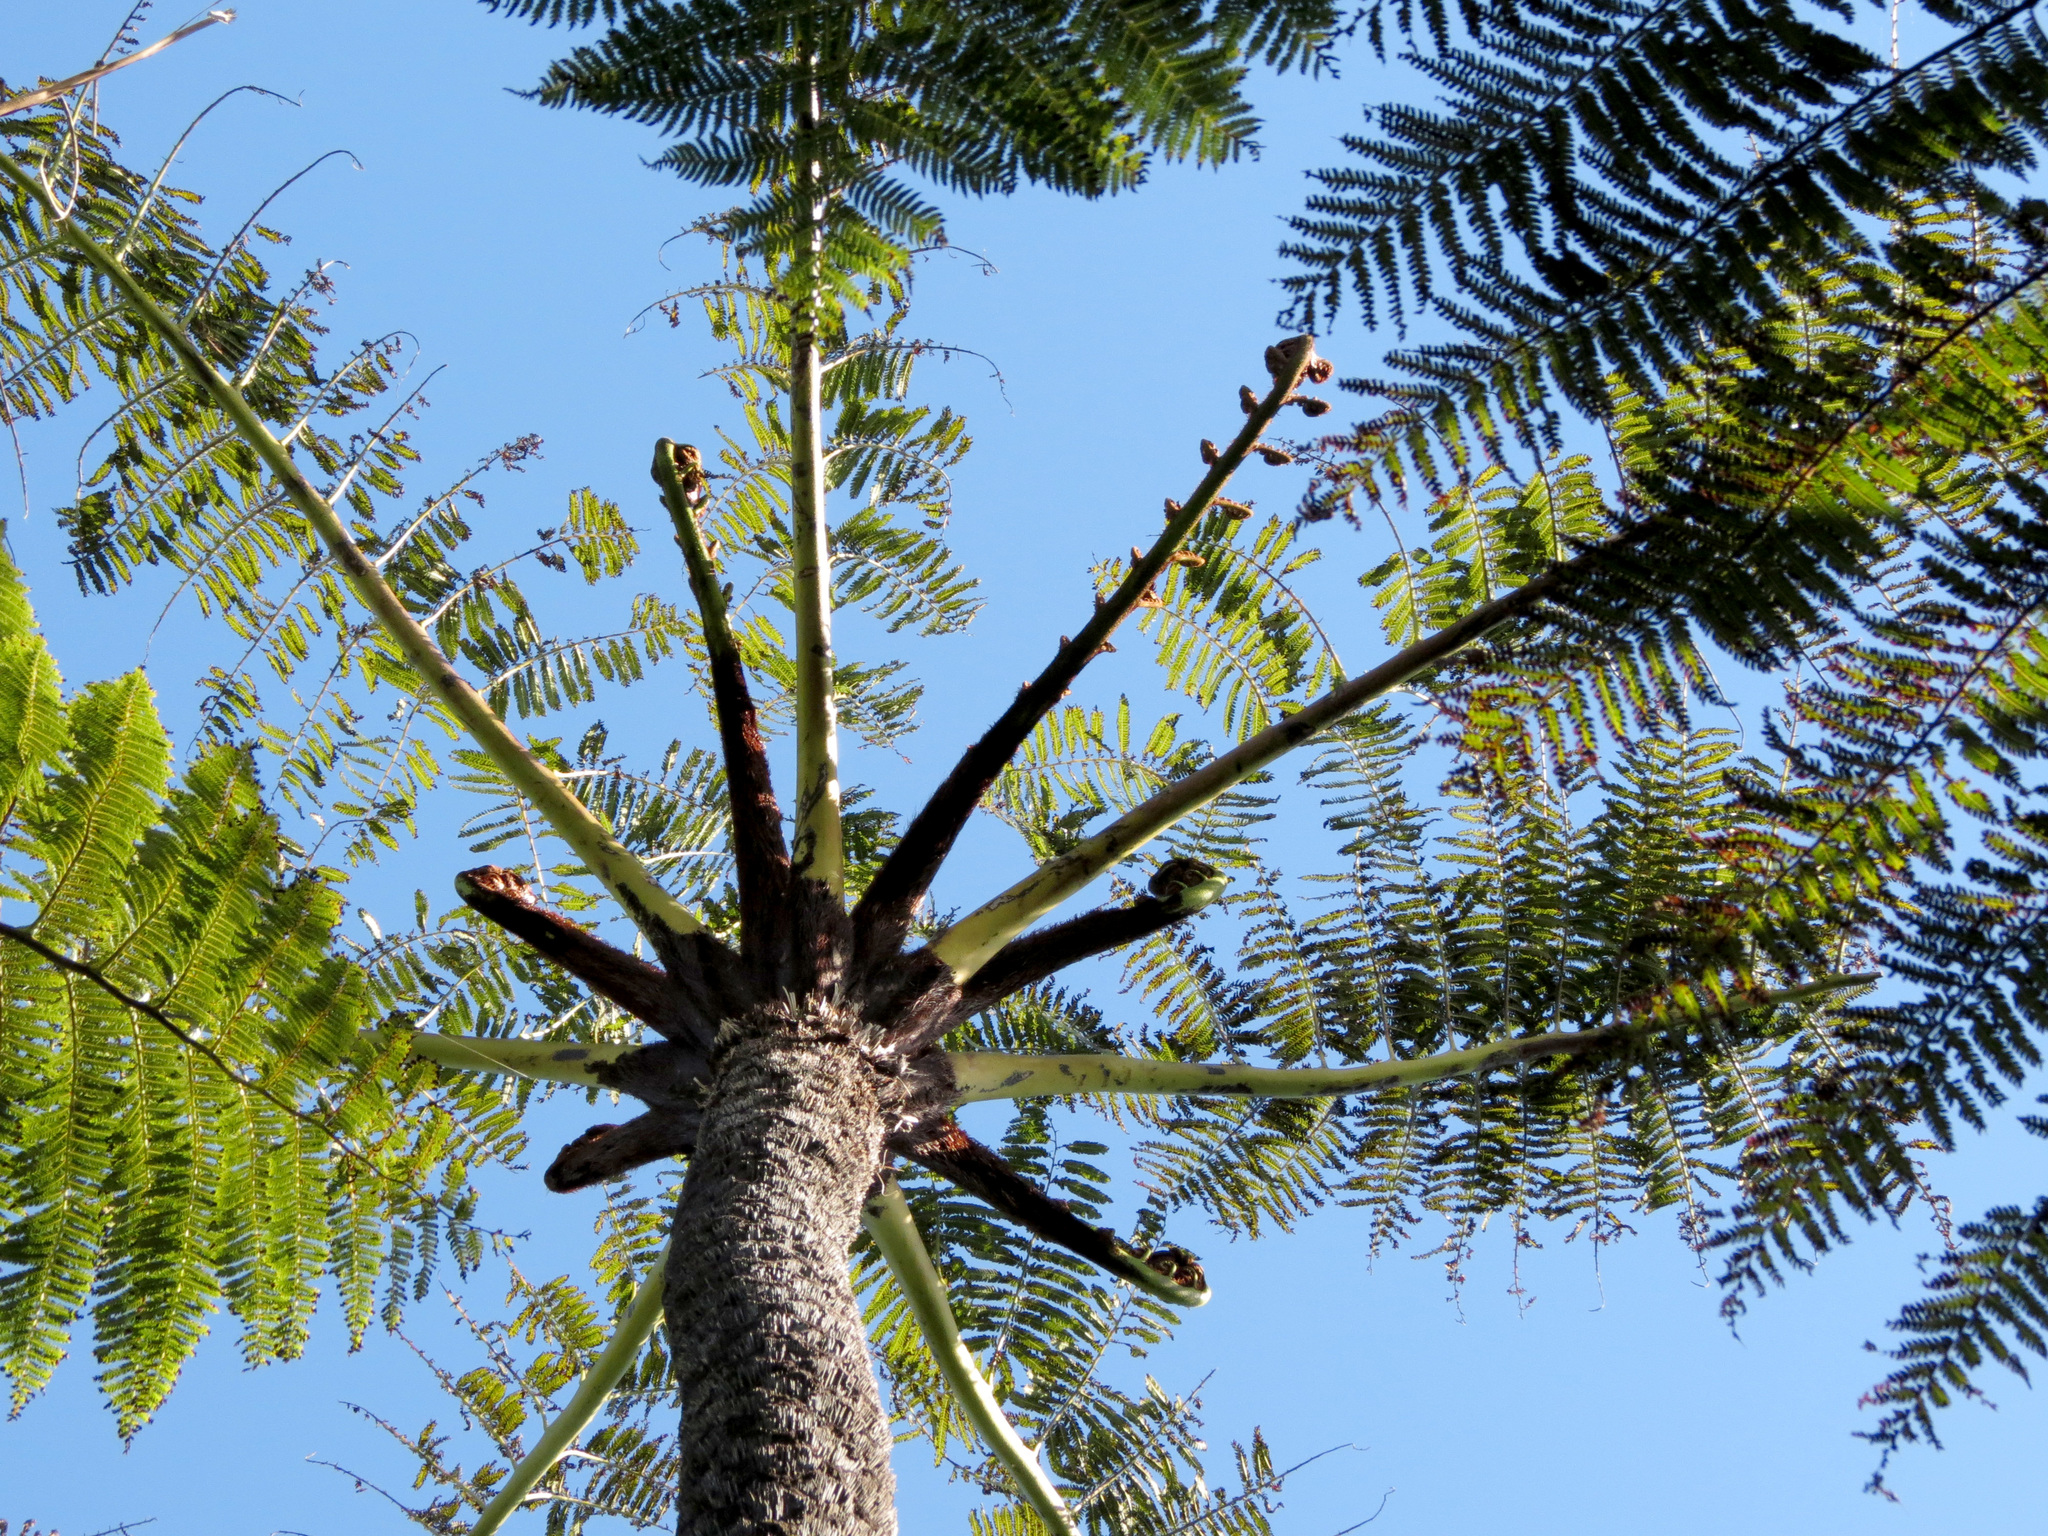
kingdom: Plantae
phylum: Tracheophyta
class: Polypodiopsida
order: Cyatheales
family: Cyatheaceae
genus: Sphaeropteris
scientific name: Sphaeropteris medullaris
